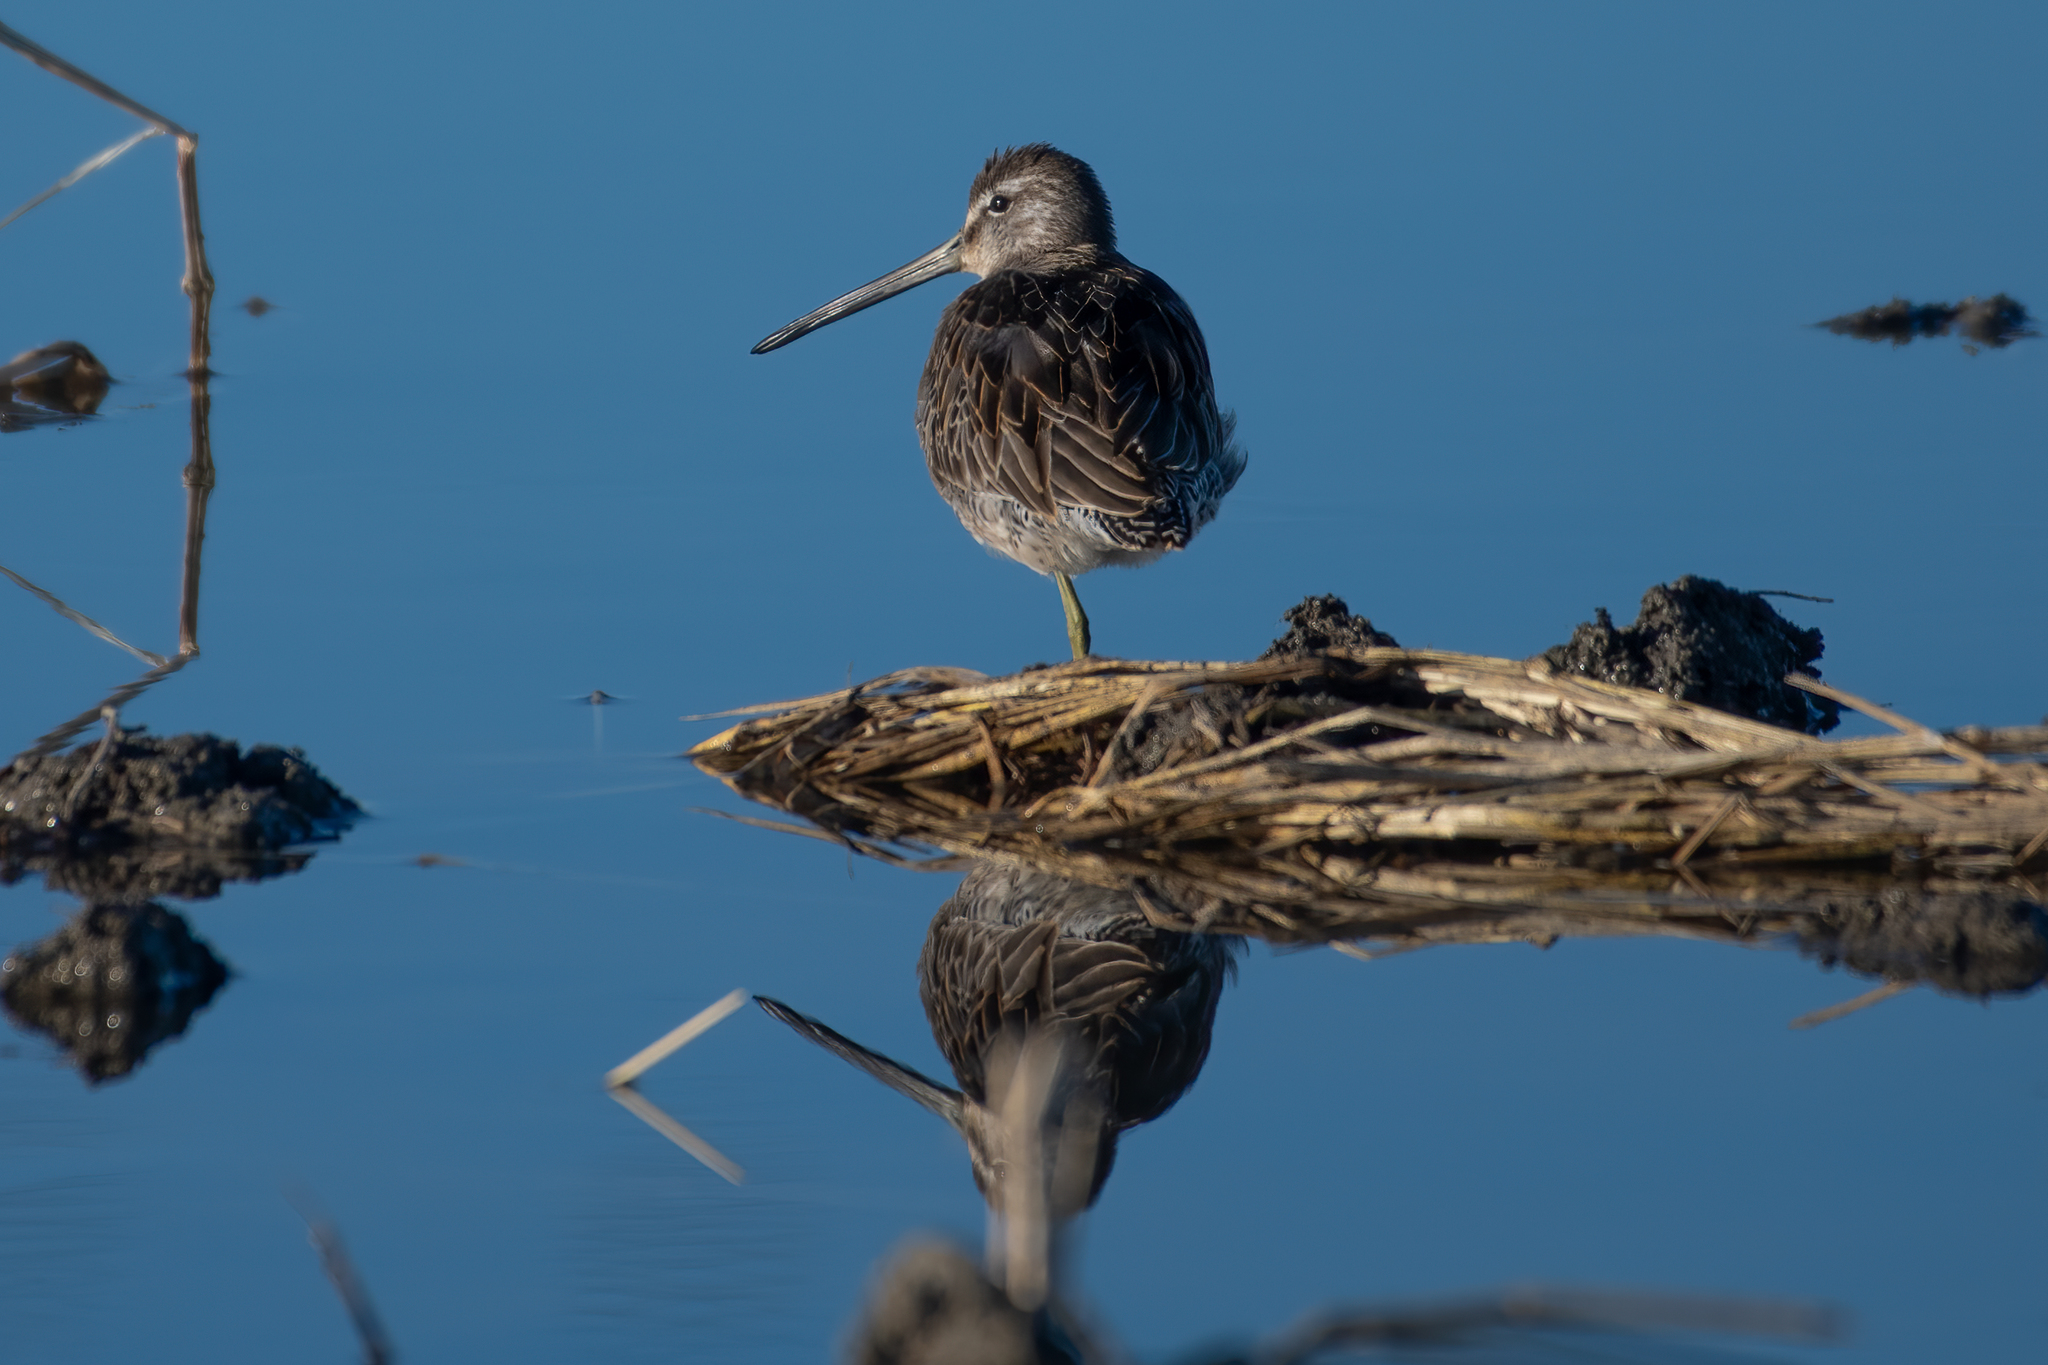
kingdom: Animalia
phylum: Chordata
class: Aves
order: Charadriiformes
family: Scolopacidae
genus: Limnodromus
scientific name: Limnodromus scolopaceus
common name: Long-billed dowitcher
